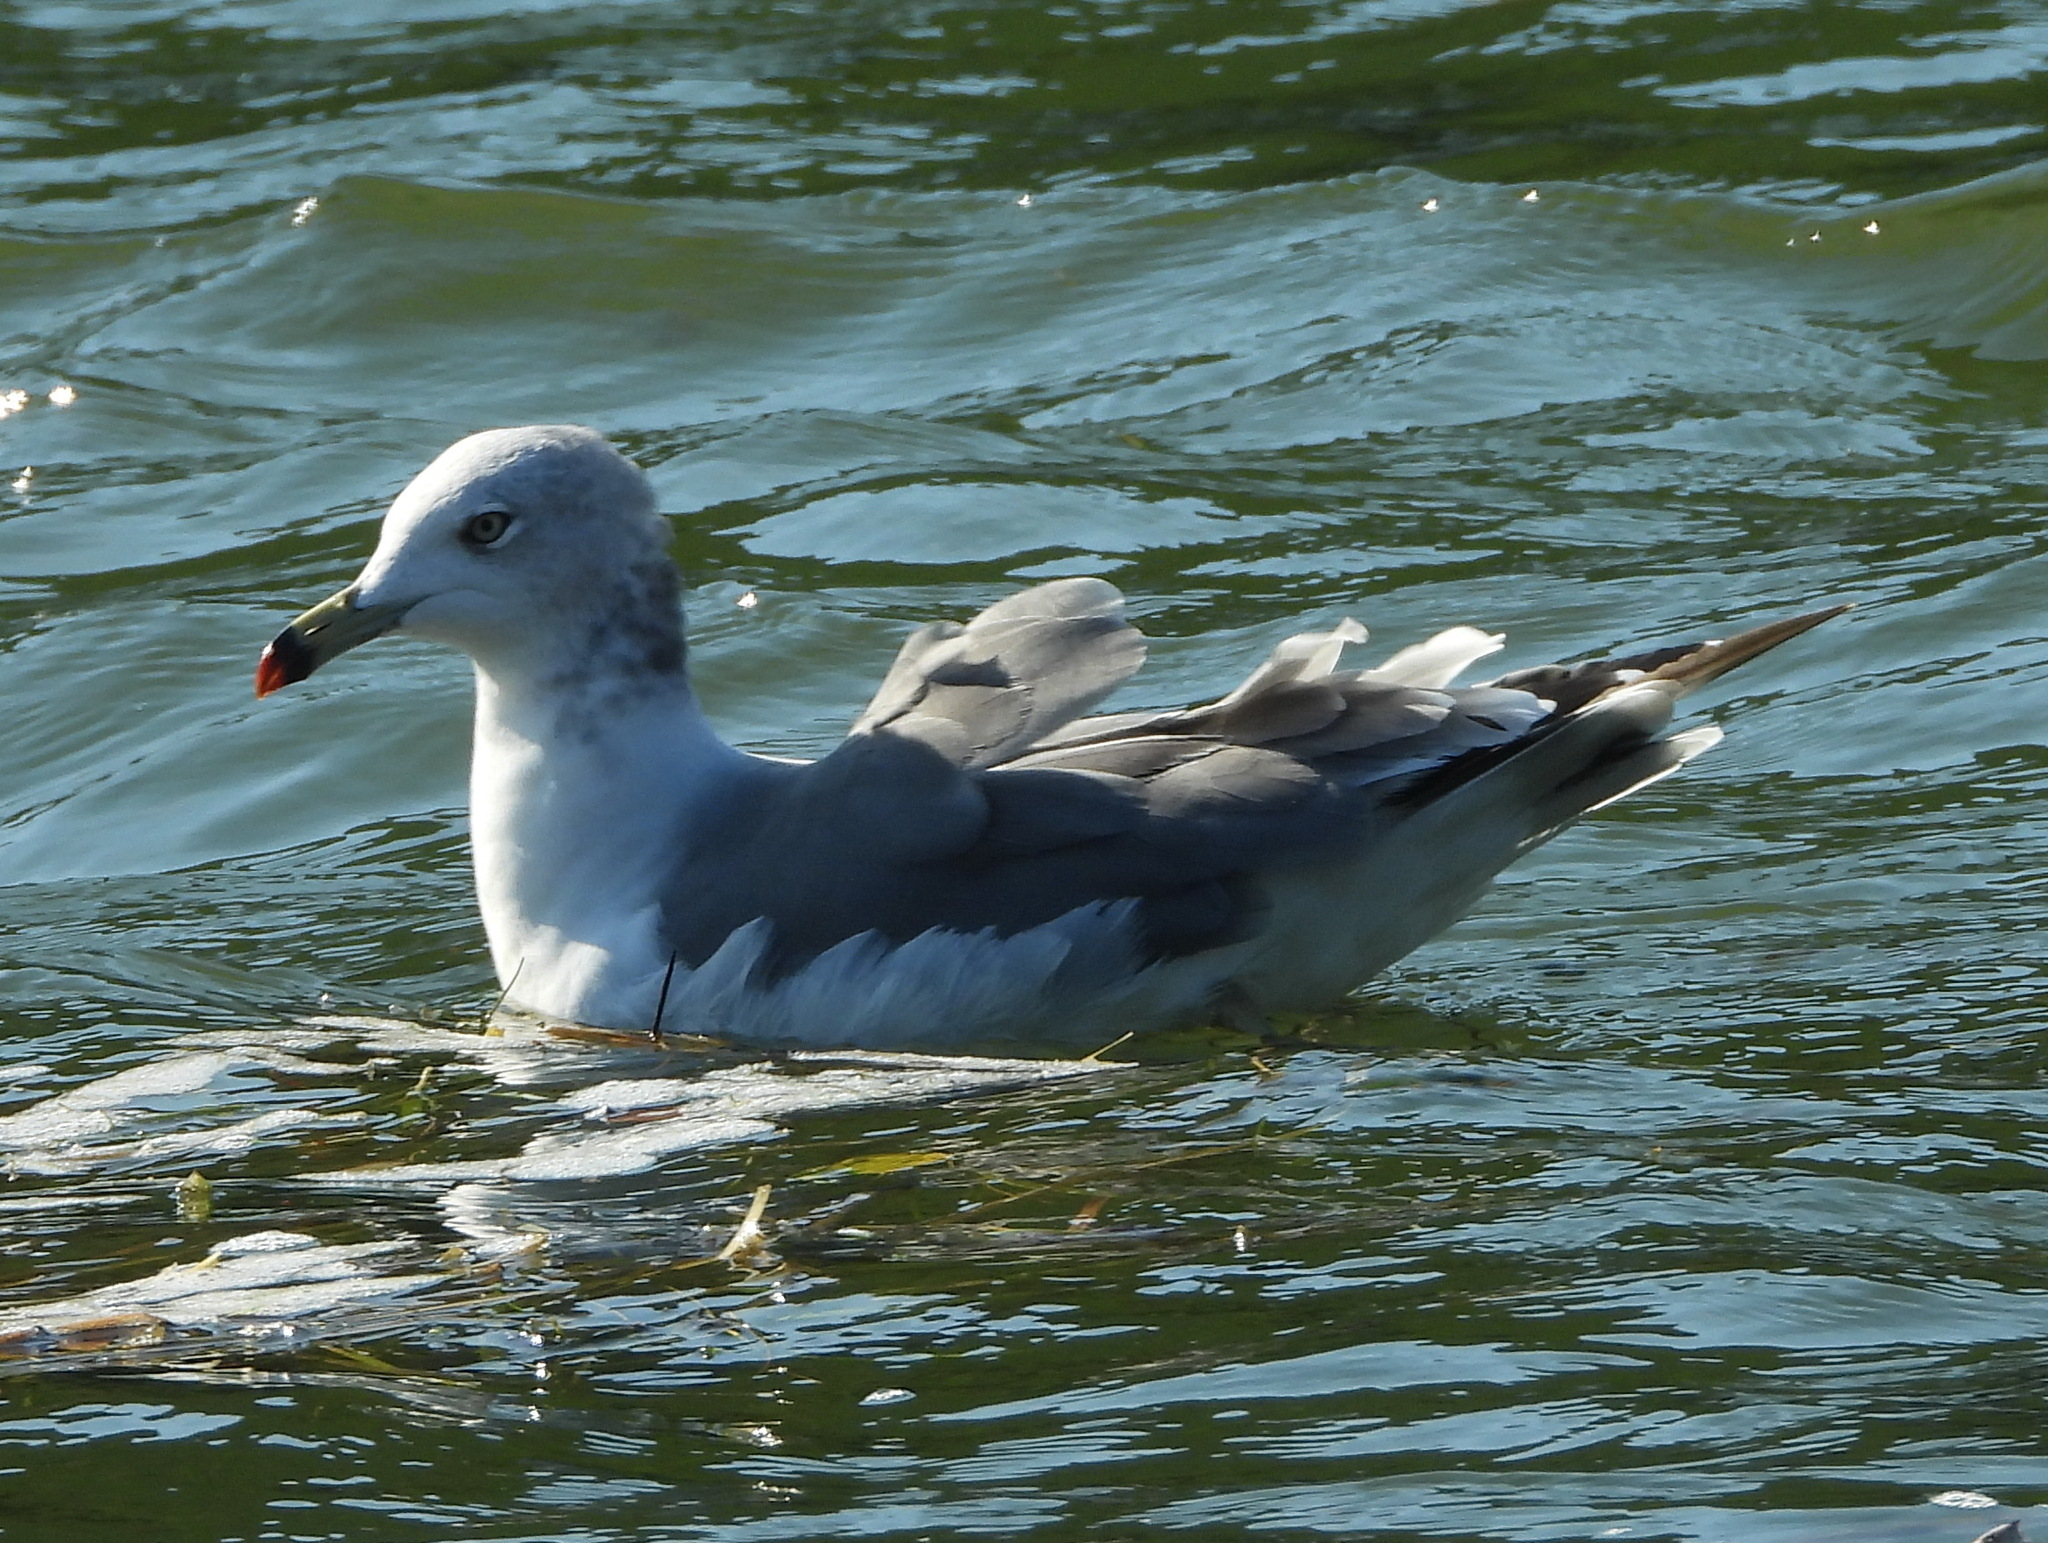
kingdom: Animalia
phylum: Chordata
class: Aves
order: Charadriiformes
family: Laridae
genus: Larus
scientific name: Larus crassirostris
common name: Black-tailed gull
